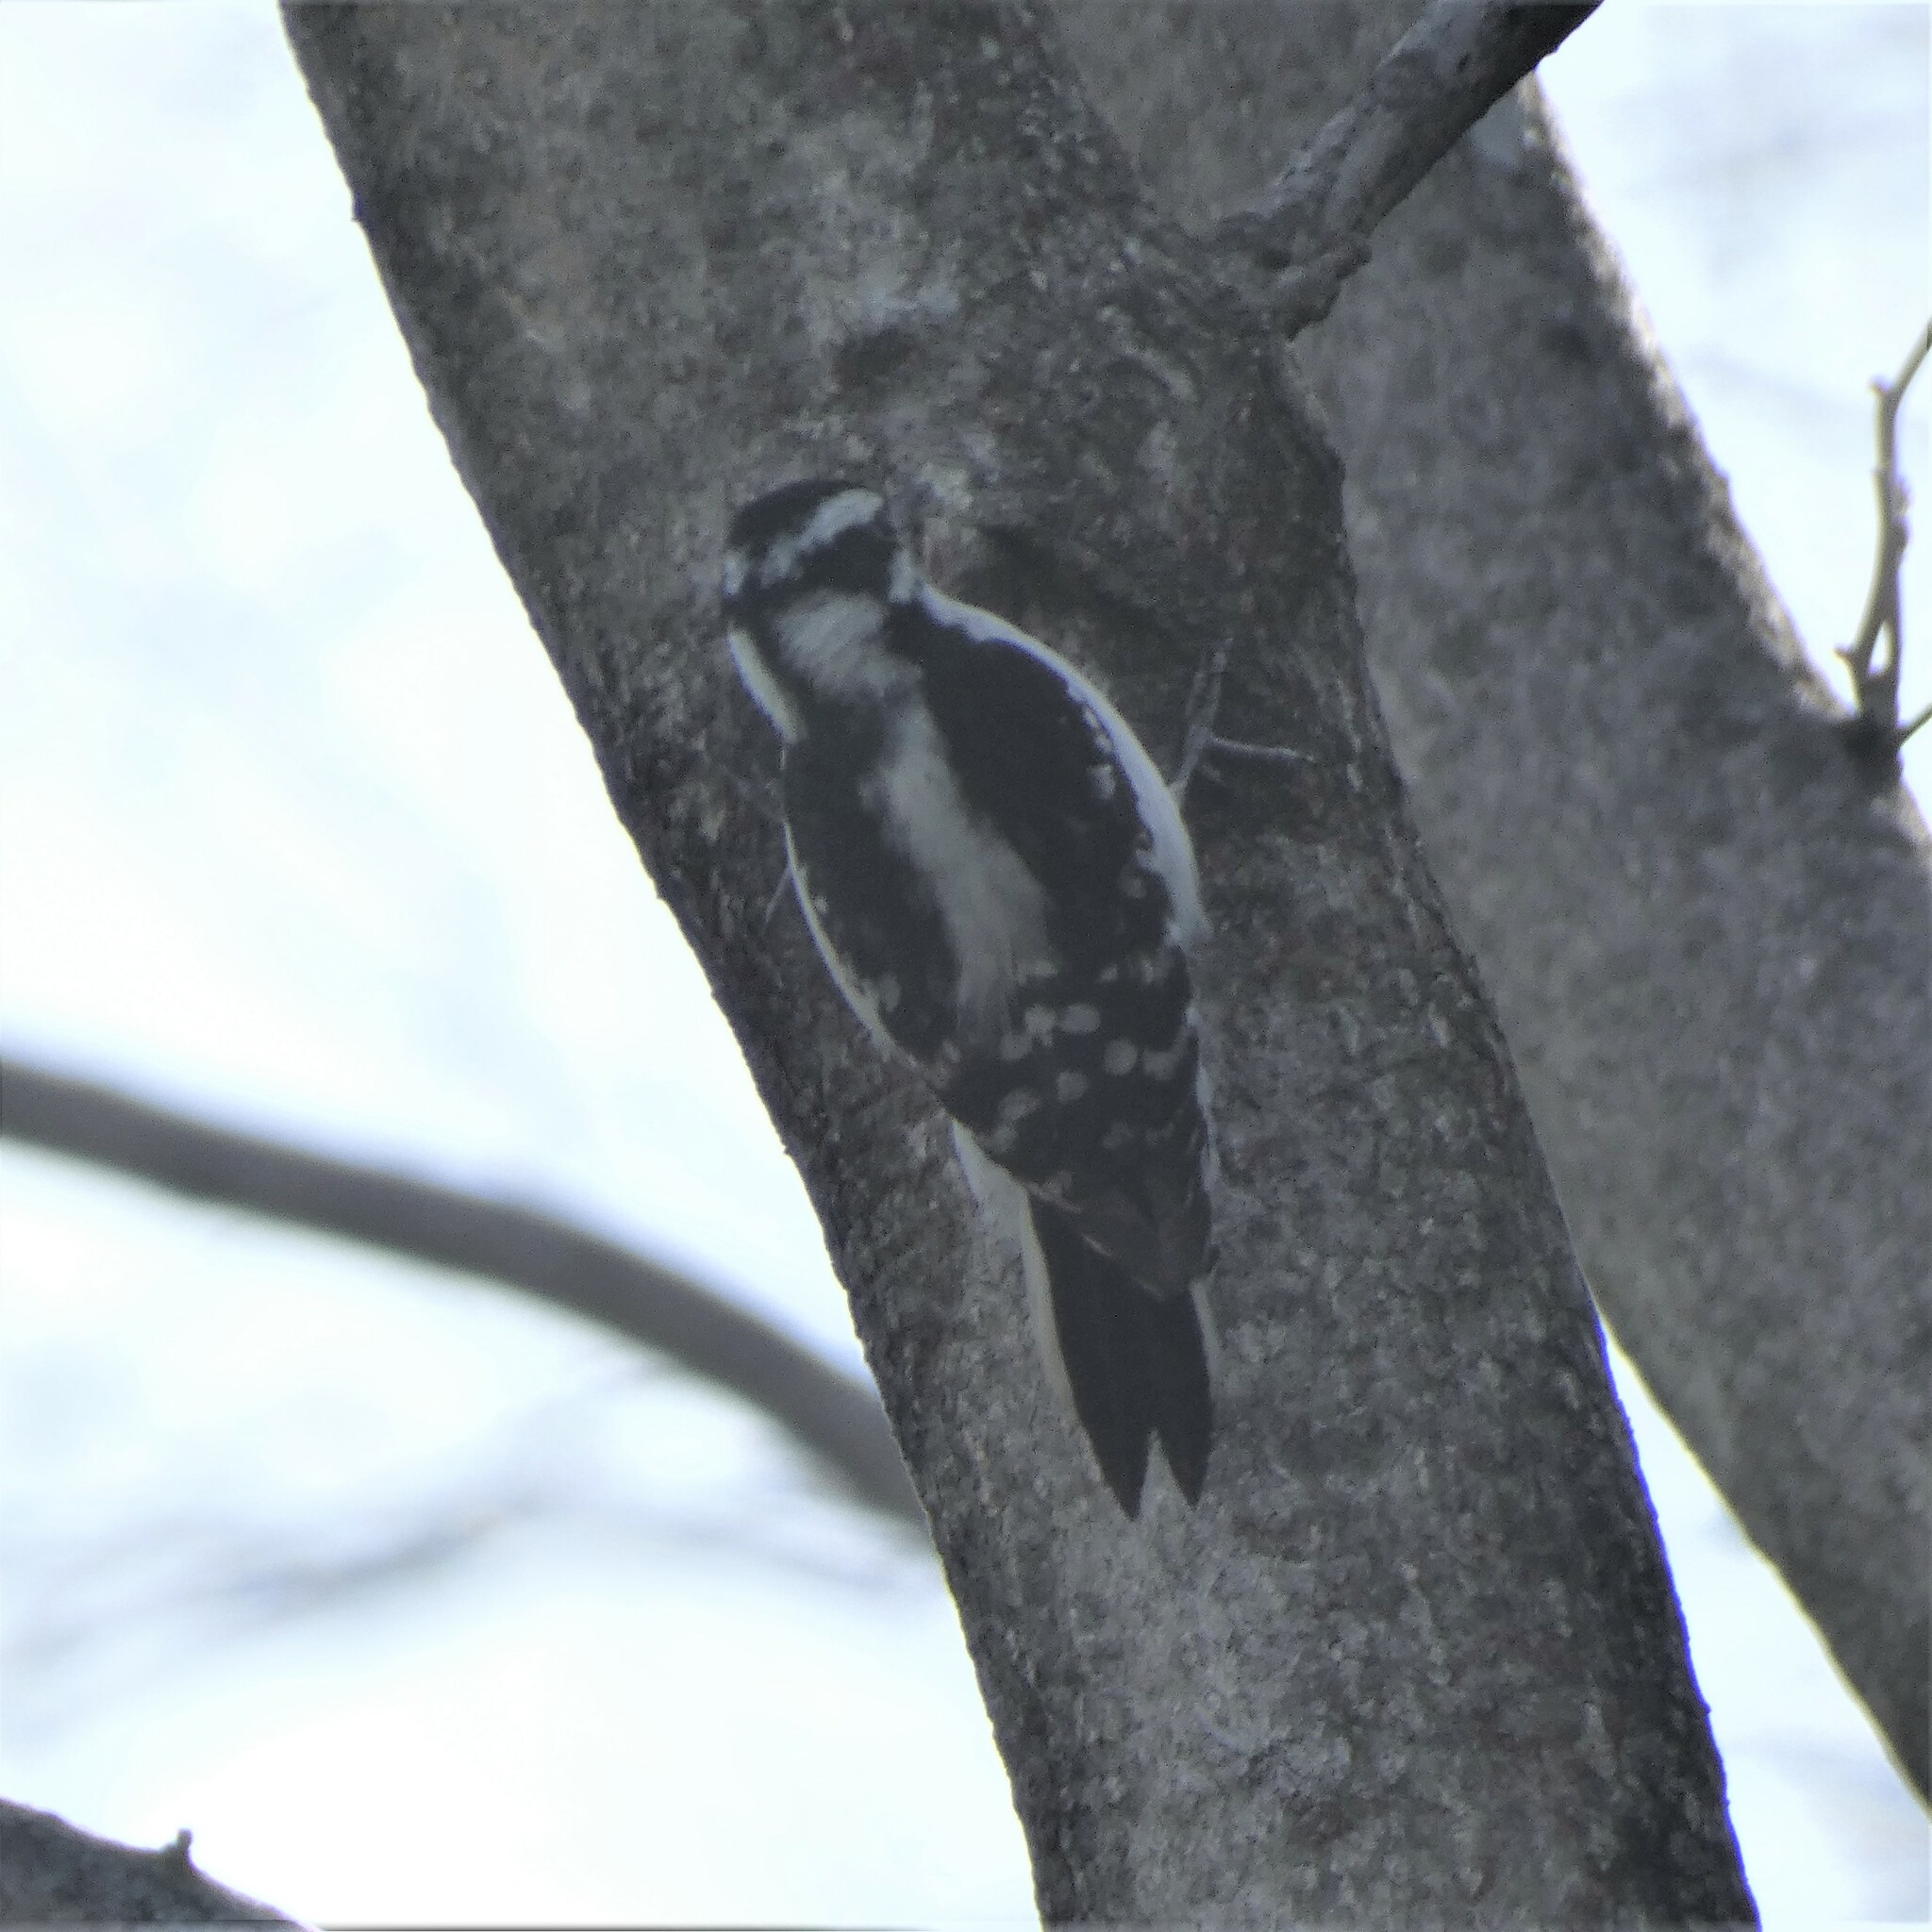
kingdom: Animalia
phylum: Chordata
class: Aves
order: Piciformes
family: Picidae
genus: Dryobates
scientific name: Dryobates pubescens
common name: Downy woodpecker
